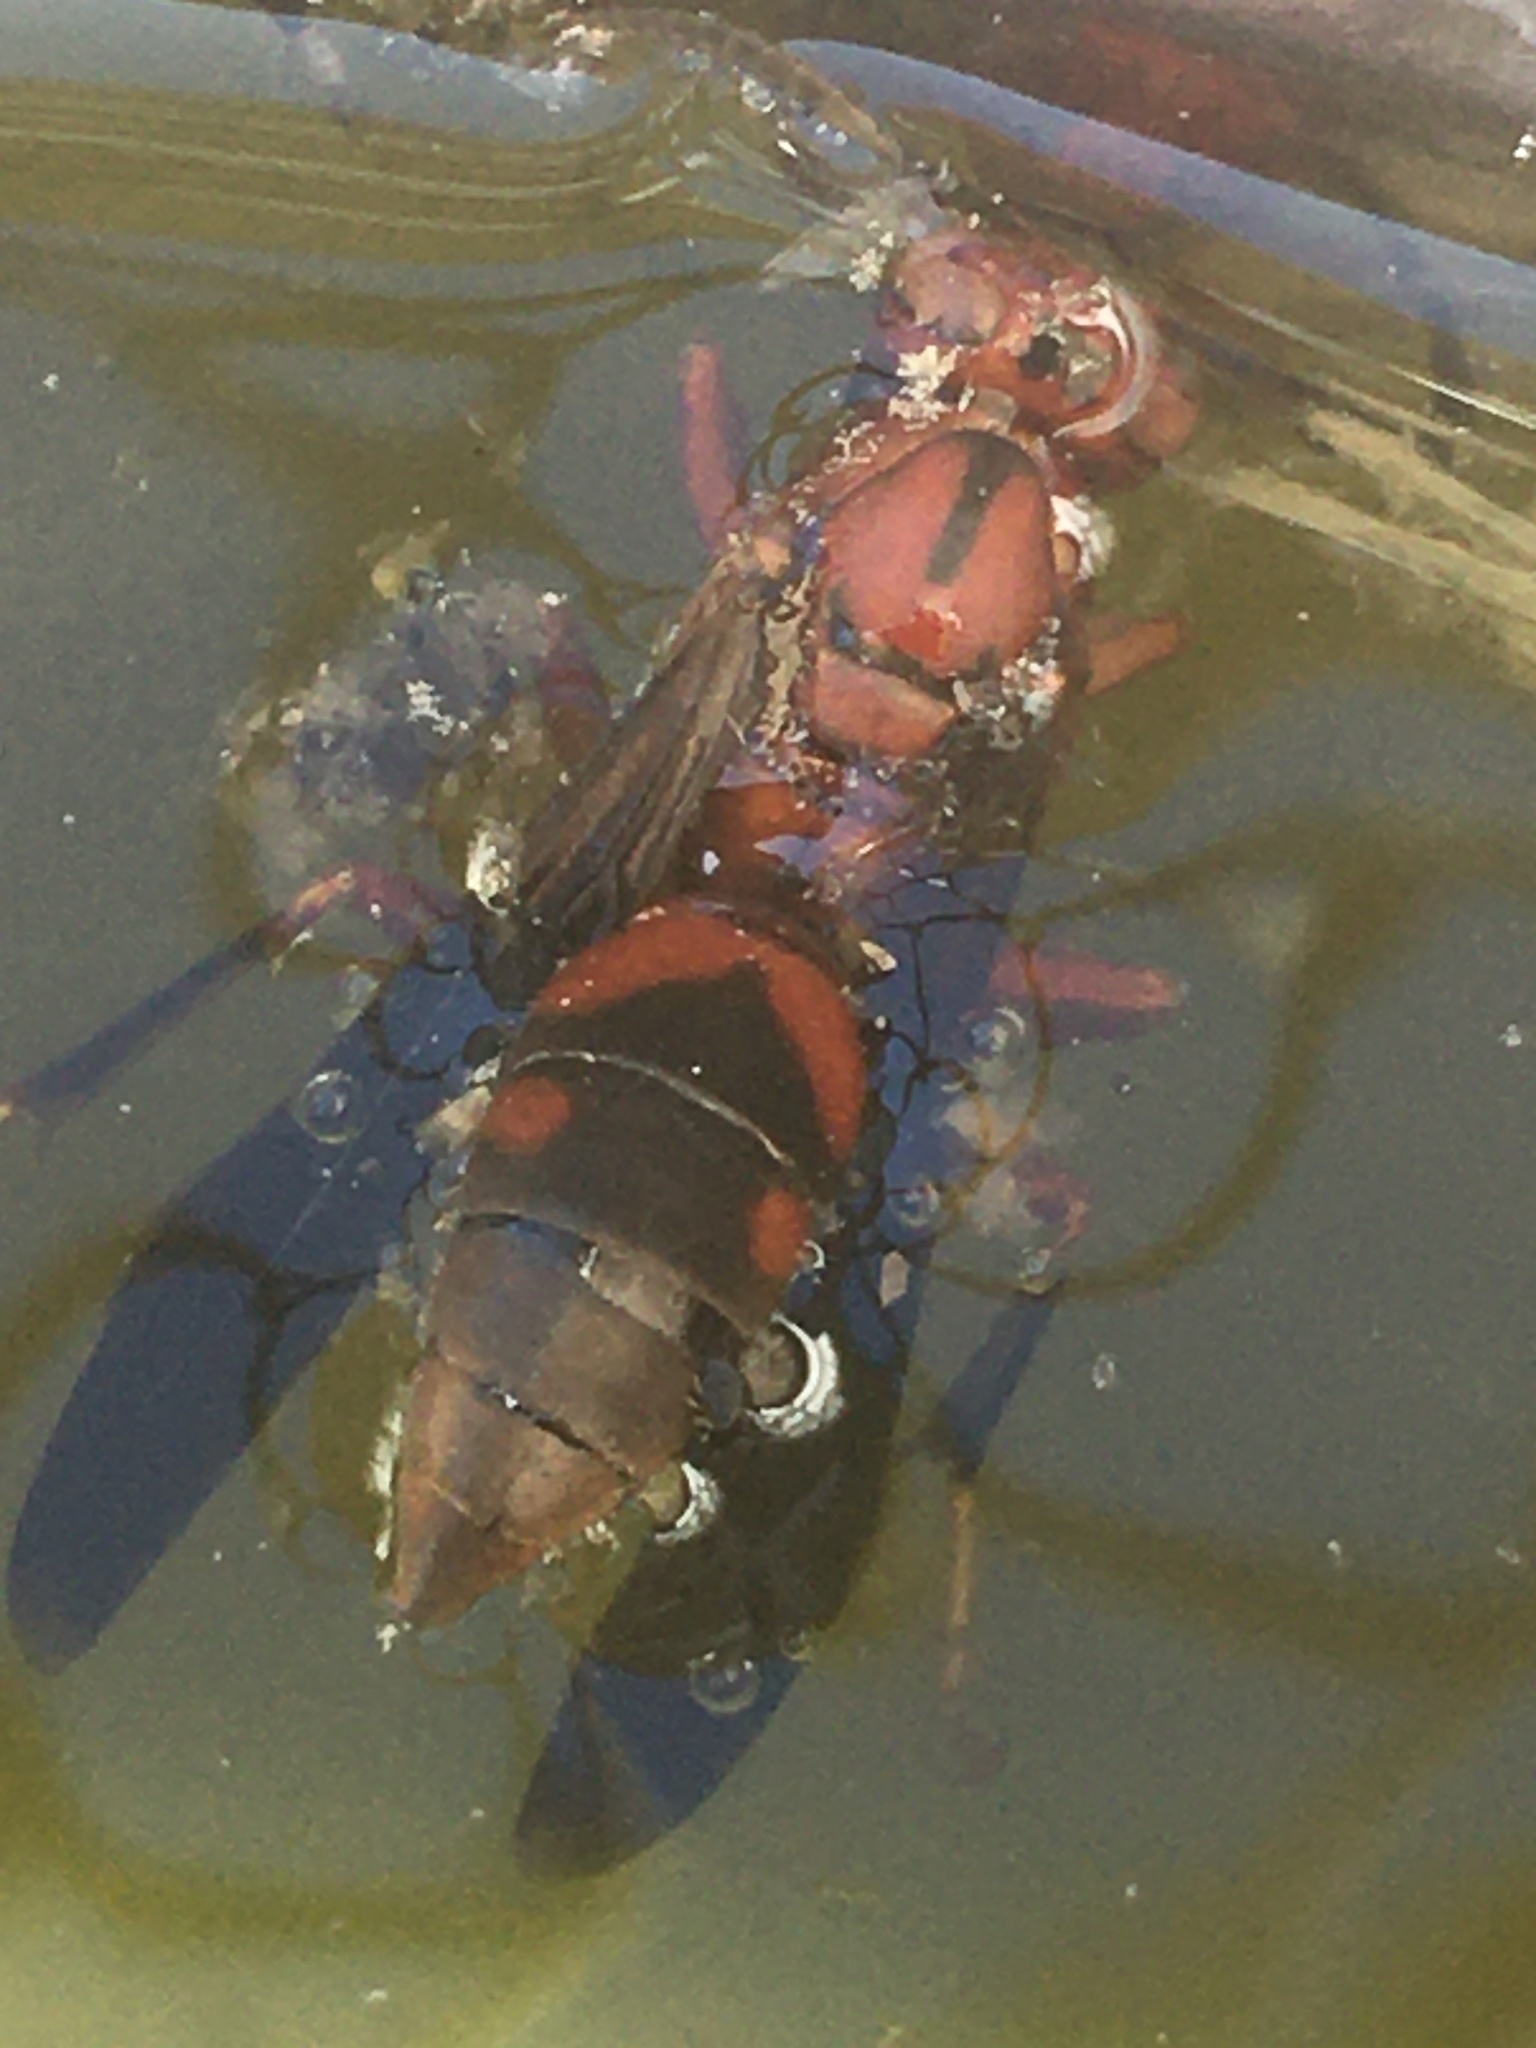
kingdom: Animalia
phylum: Arthropoda
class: Insecta
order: Hymenoptera
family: Eumenidae
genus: Polistes
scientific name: Polistes metricus
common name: Metric paper wasp
